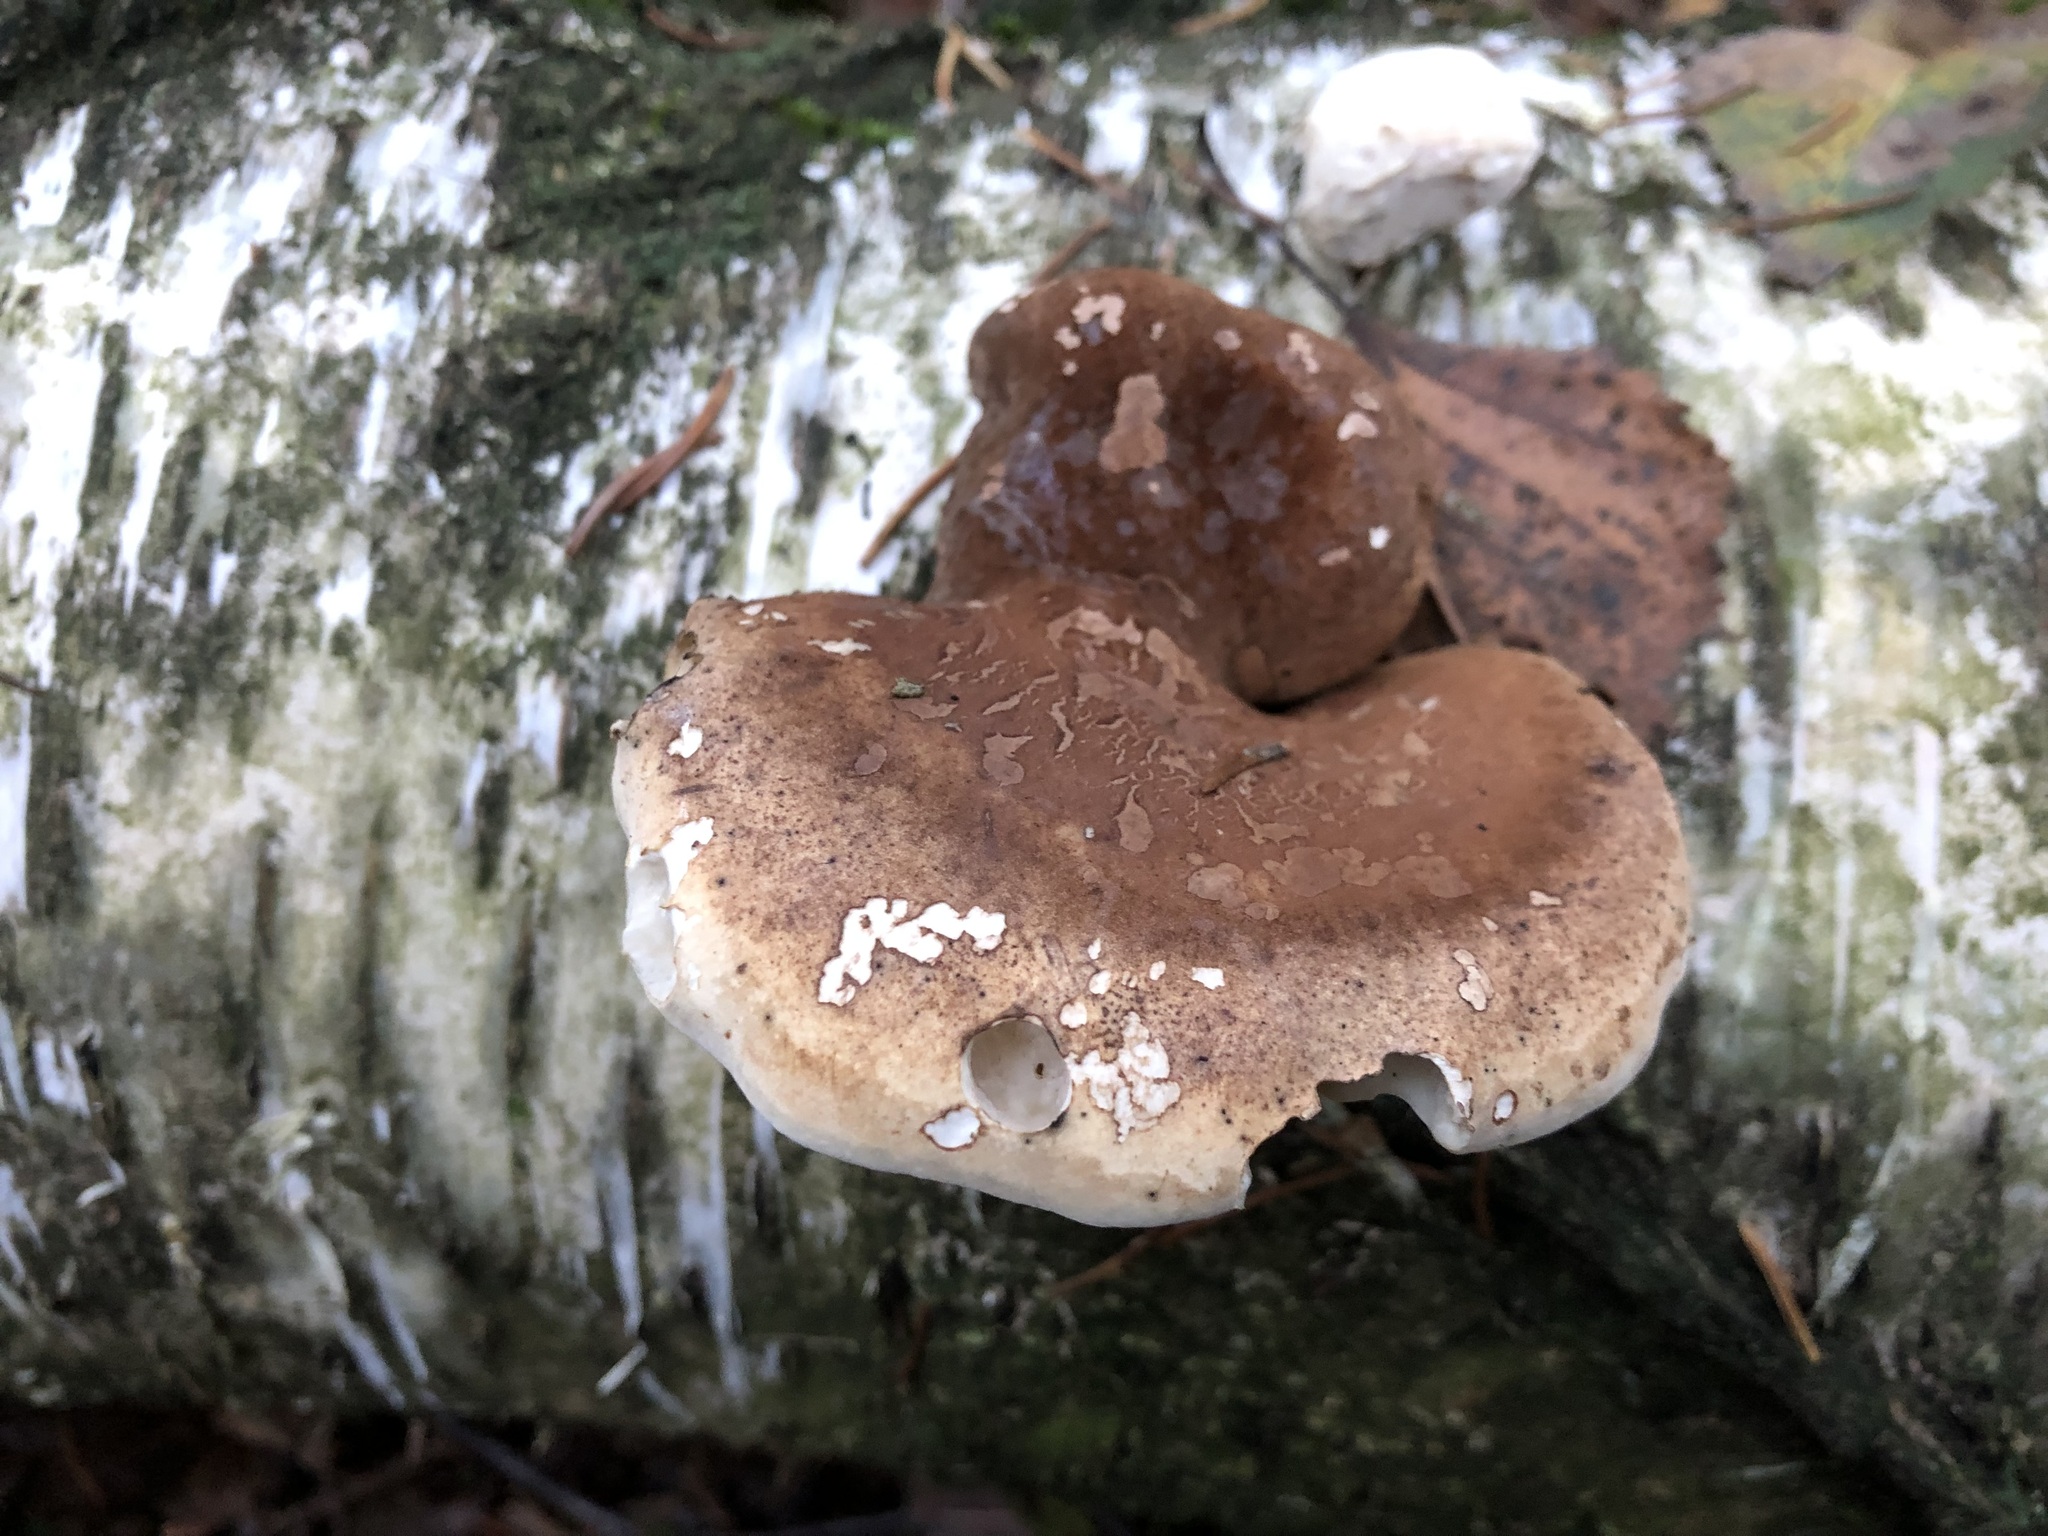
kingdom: Fungi
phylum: Basidiomycota
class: Agaricomycetes
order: Polyporales
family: Fomitopsidaceae
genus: Fomitopsis
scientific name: Fomitopsis betulina
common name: Birch polypore
